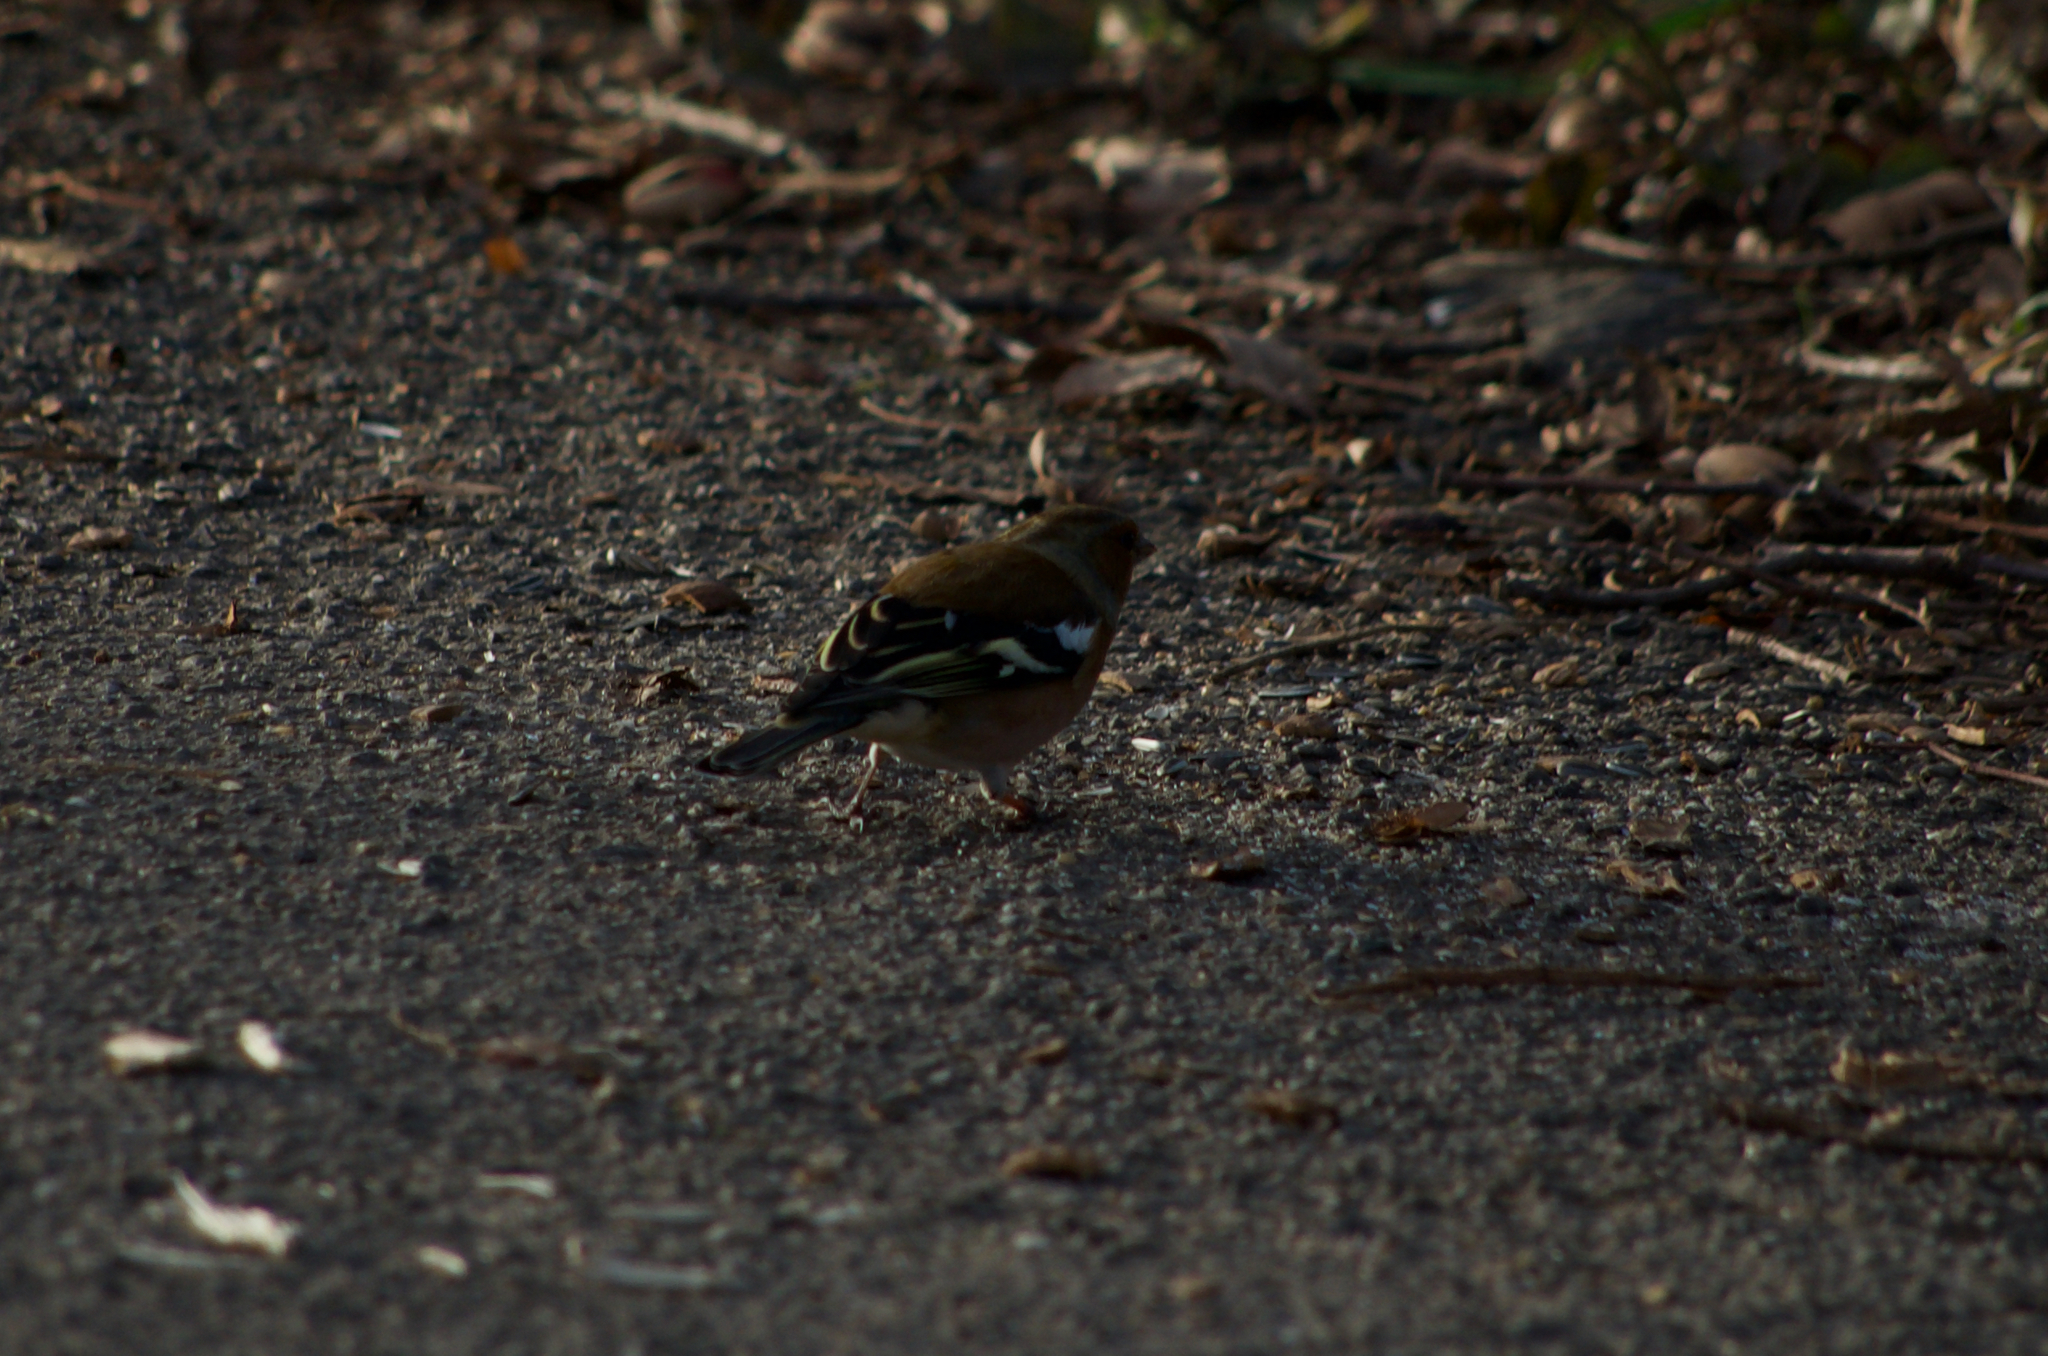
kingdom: Animalia
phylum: Chordata
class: Aves
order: Passeriformes
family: Fringillidae
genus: Fringilla
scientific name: Fringilla coelebs
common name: Common chaffinch
